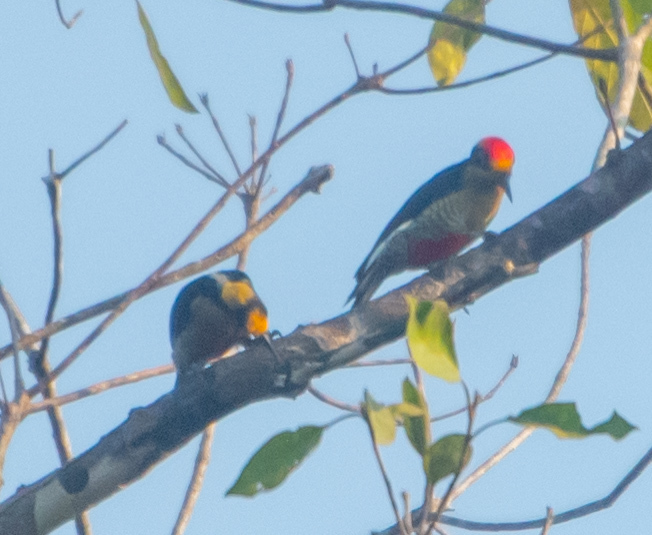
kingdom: Animalia
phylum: Chordata
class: Aves
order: Piciformes
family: Picidae
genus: Melanerpes
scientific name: Melanerpes chrysauchen
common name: Golden-naped woodpecker
